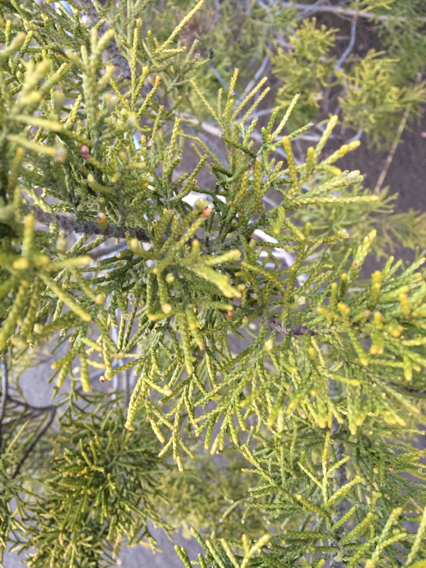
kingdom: Plantae
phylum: Tracheophyta
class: Pinopsida
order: Pinales
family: Podocarpaceae
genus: Halocarpus
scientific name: Halocarpus bidwillii
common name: Bog pine
